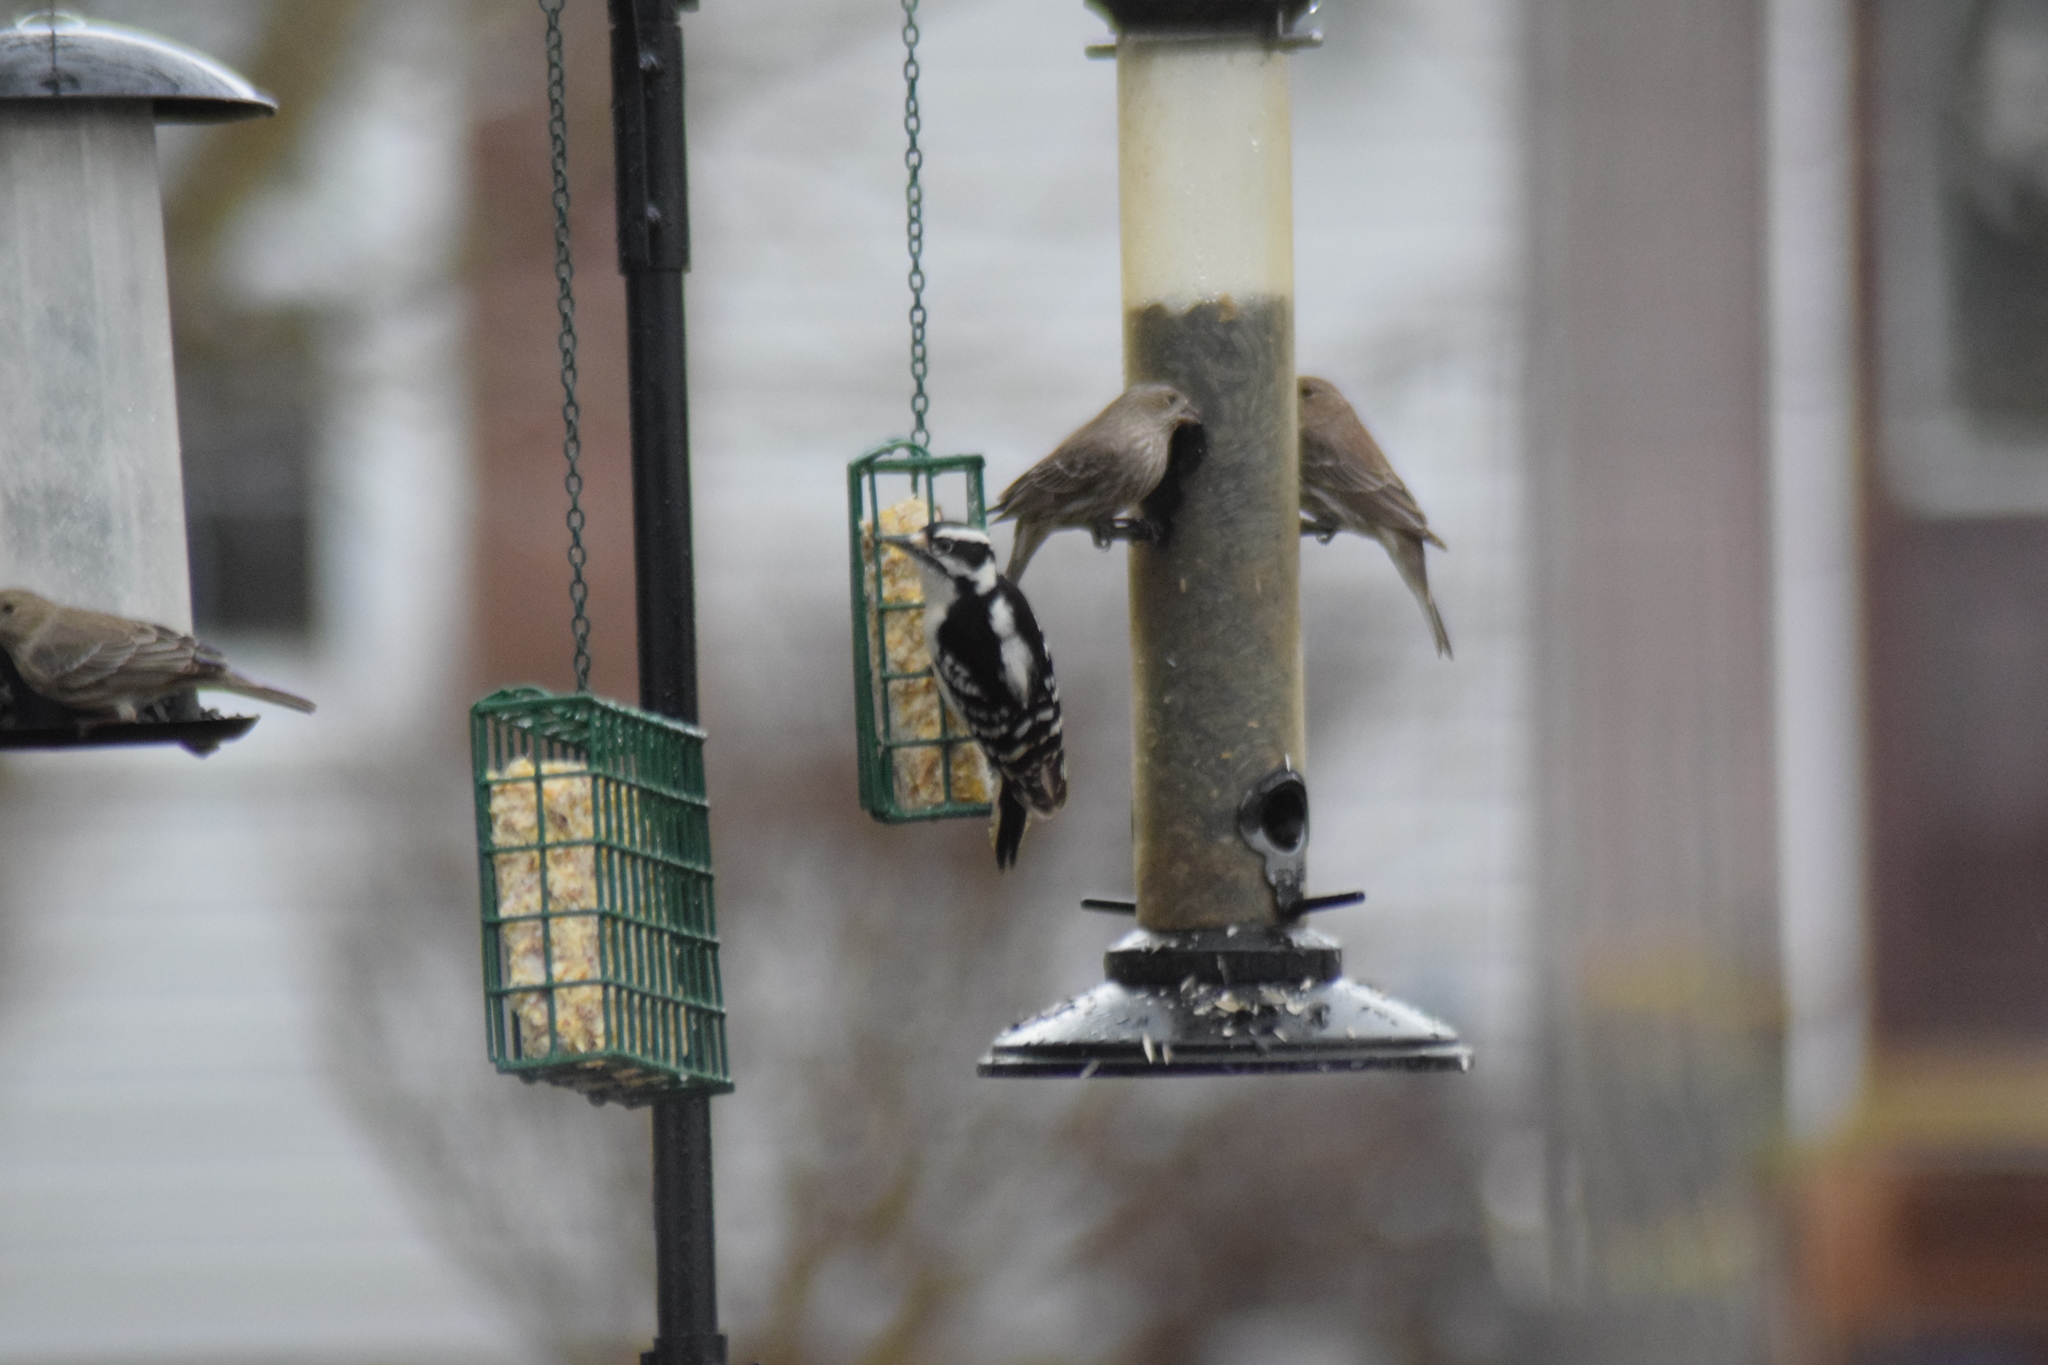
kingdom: Animalia
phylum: Chordata
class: Aves
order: Piciformes
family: Picidae
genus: Dryobates
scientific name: Dryobates pubescens
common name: Downy woodpecker
